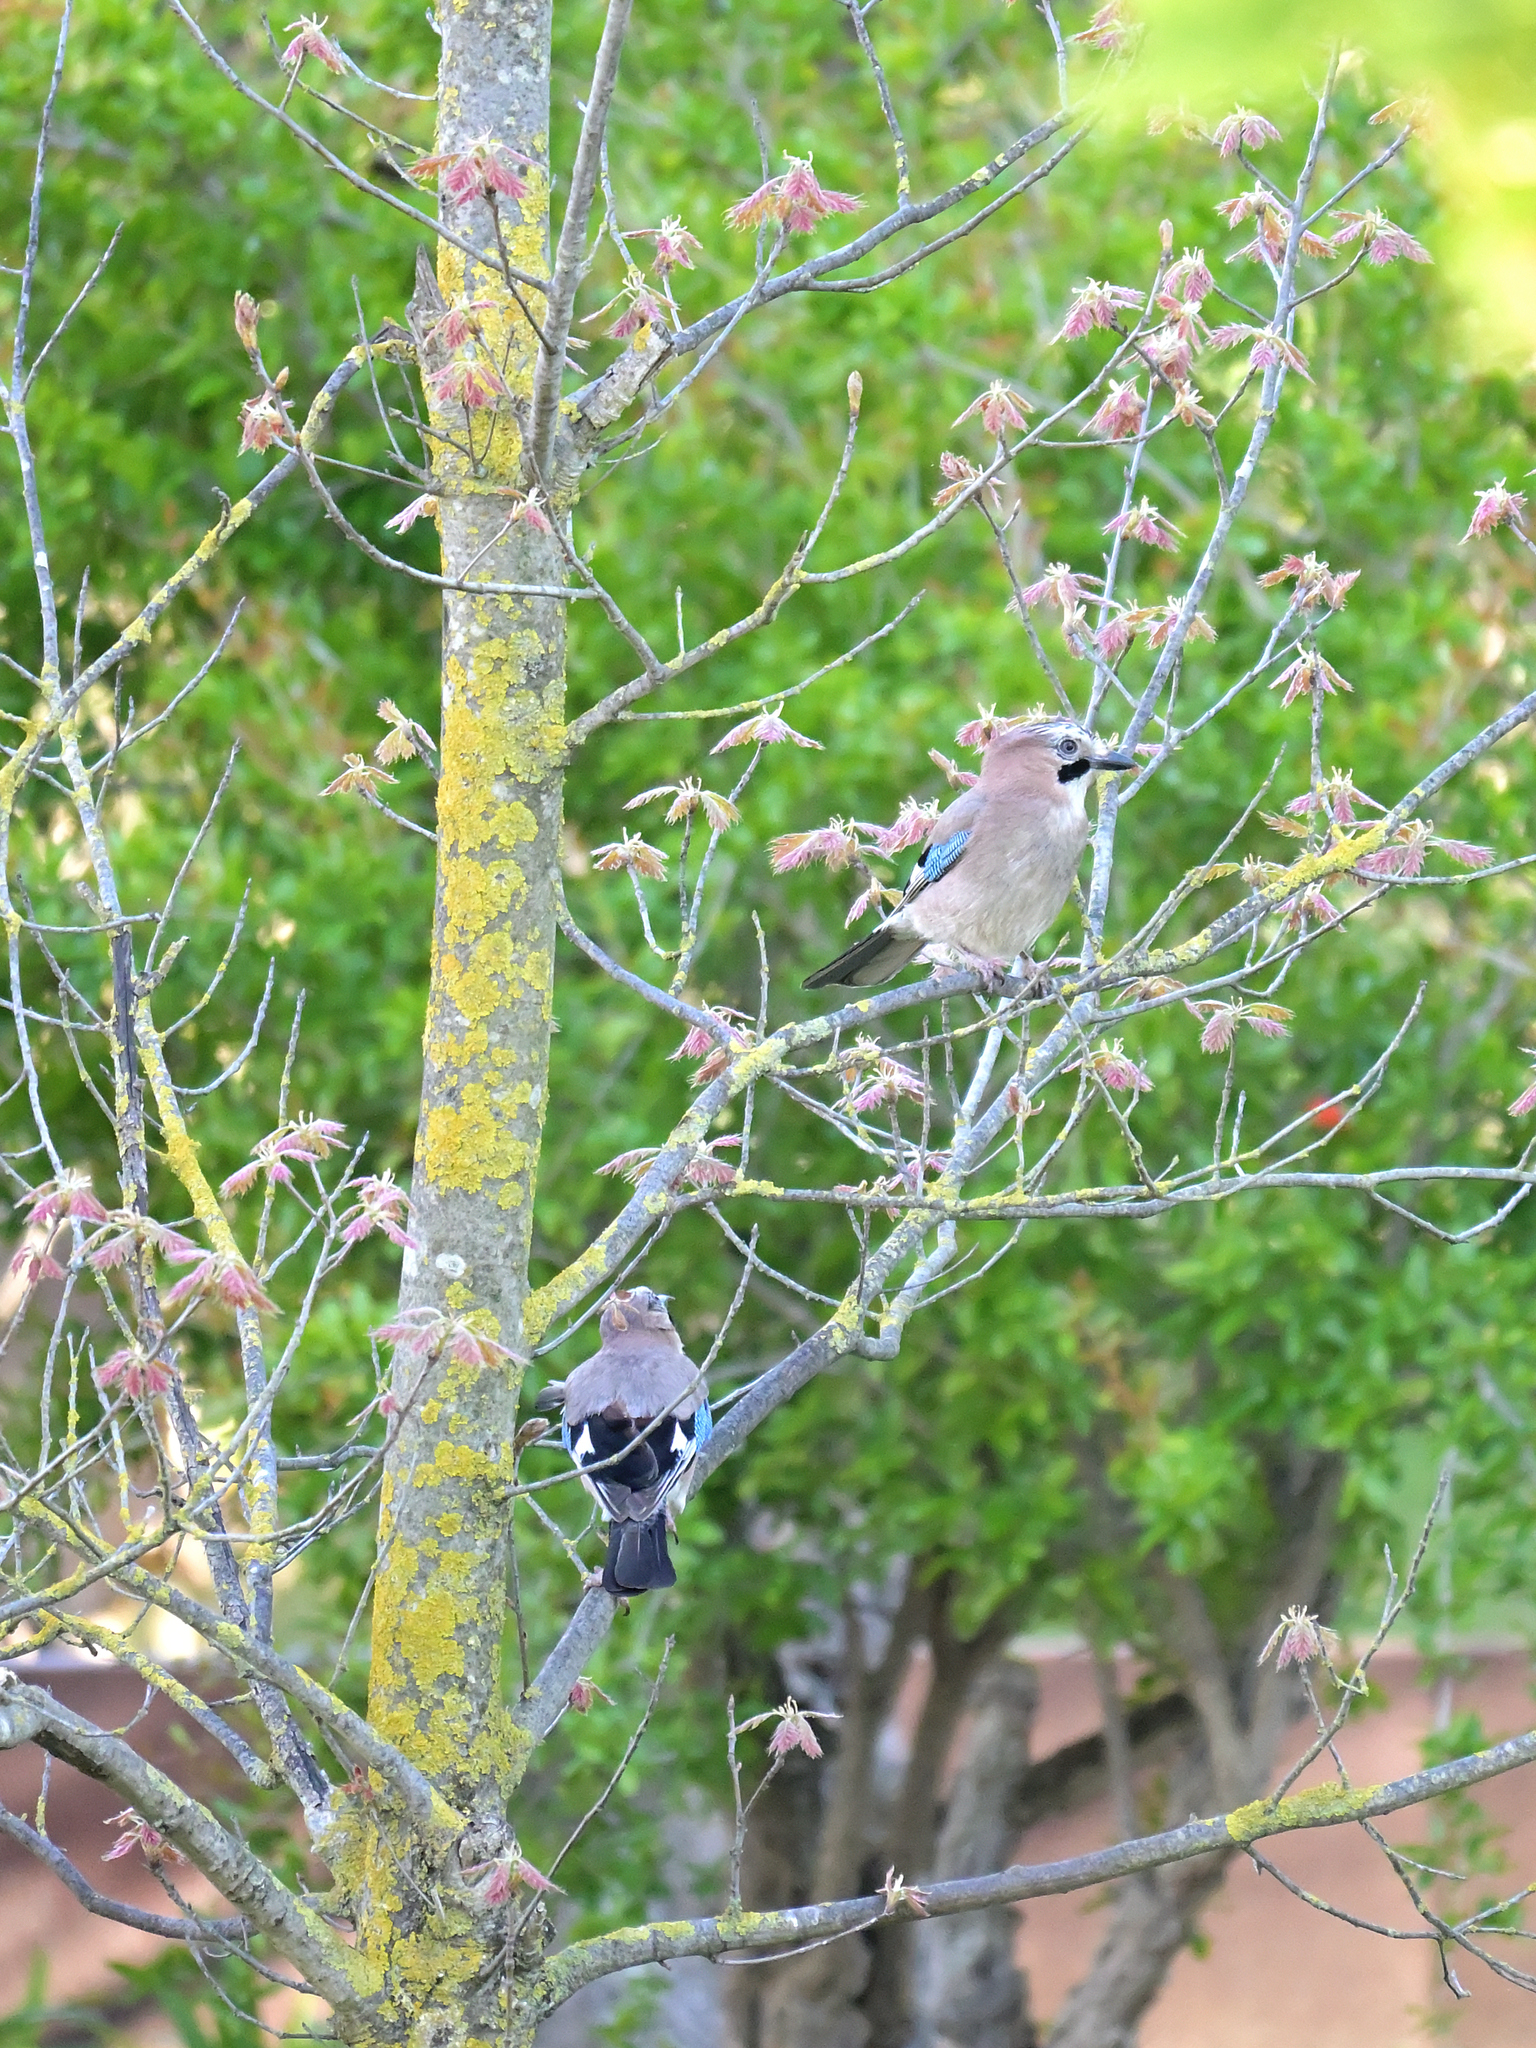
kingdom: Animalia
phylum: Chordata
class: Aves
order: Passeriformes
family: Corvidae
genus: Garrulus
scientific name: Garrulus glandarius
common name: Eurasian jay
